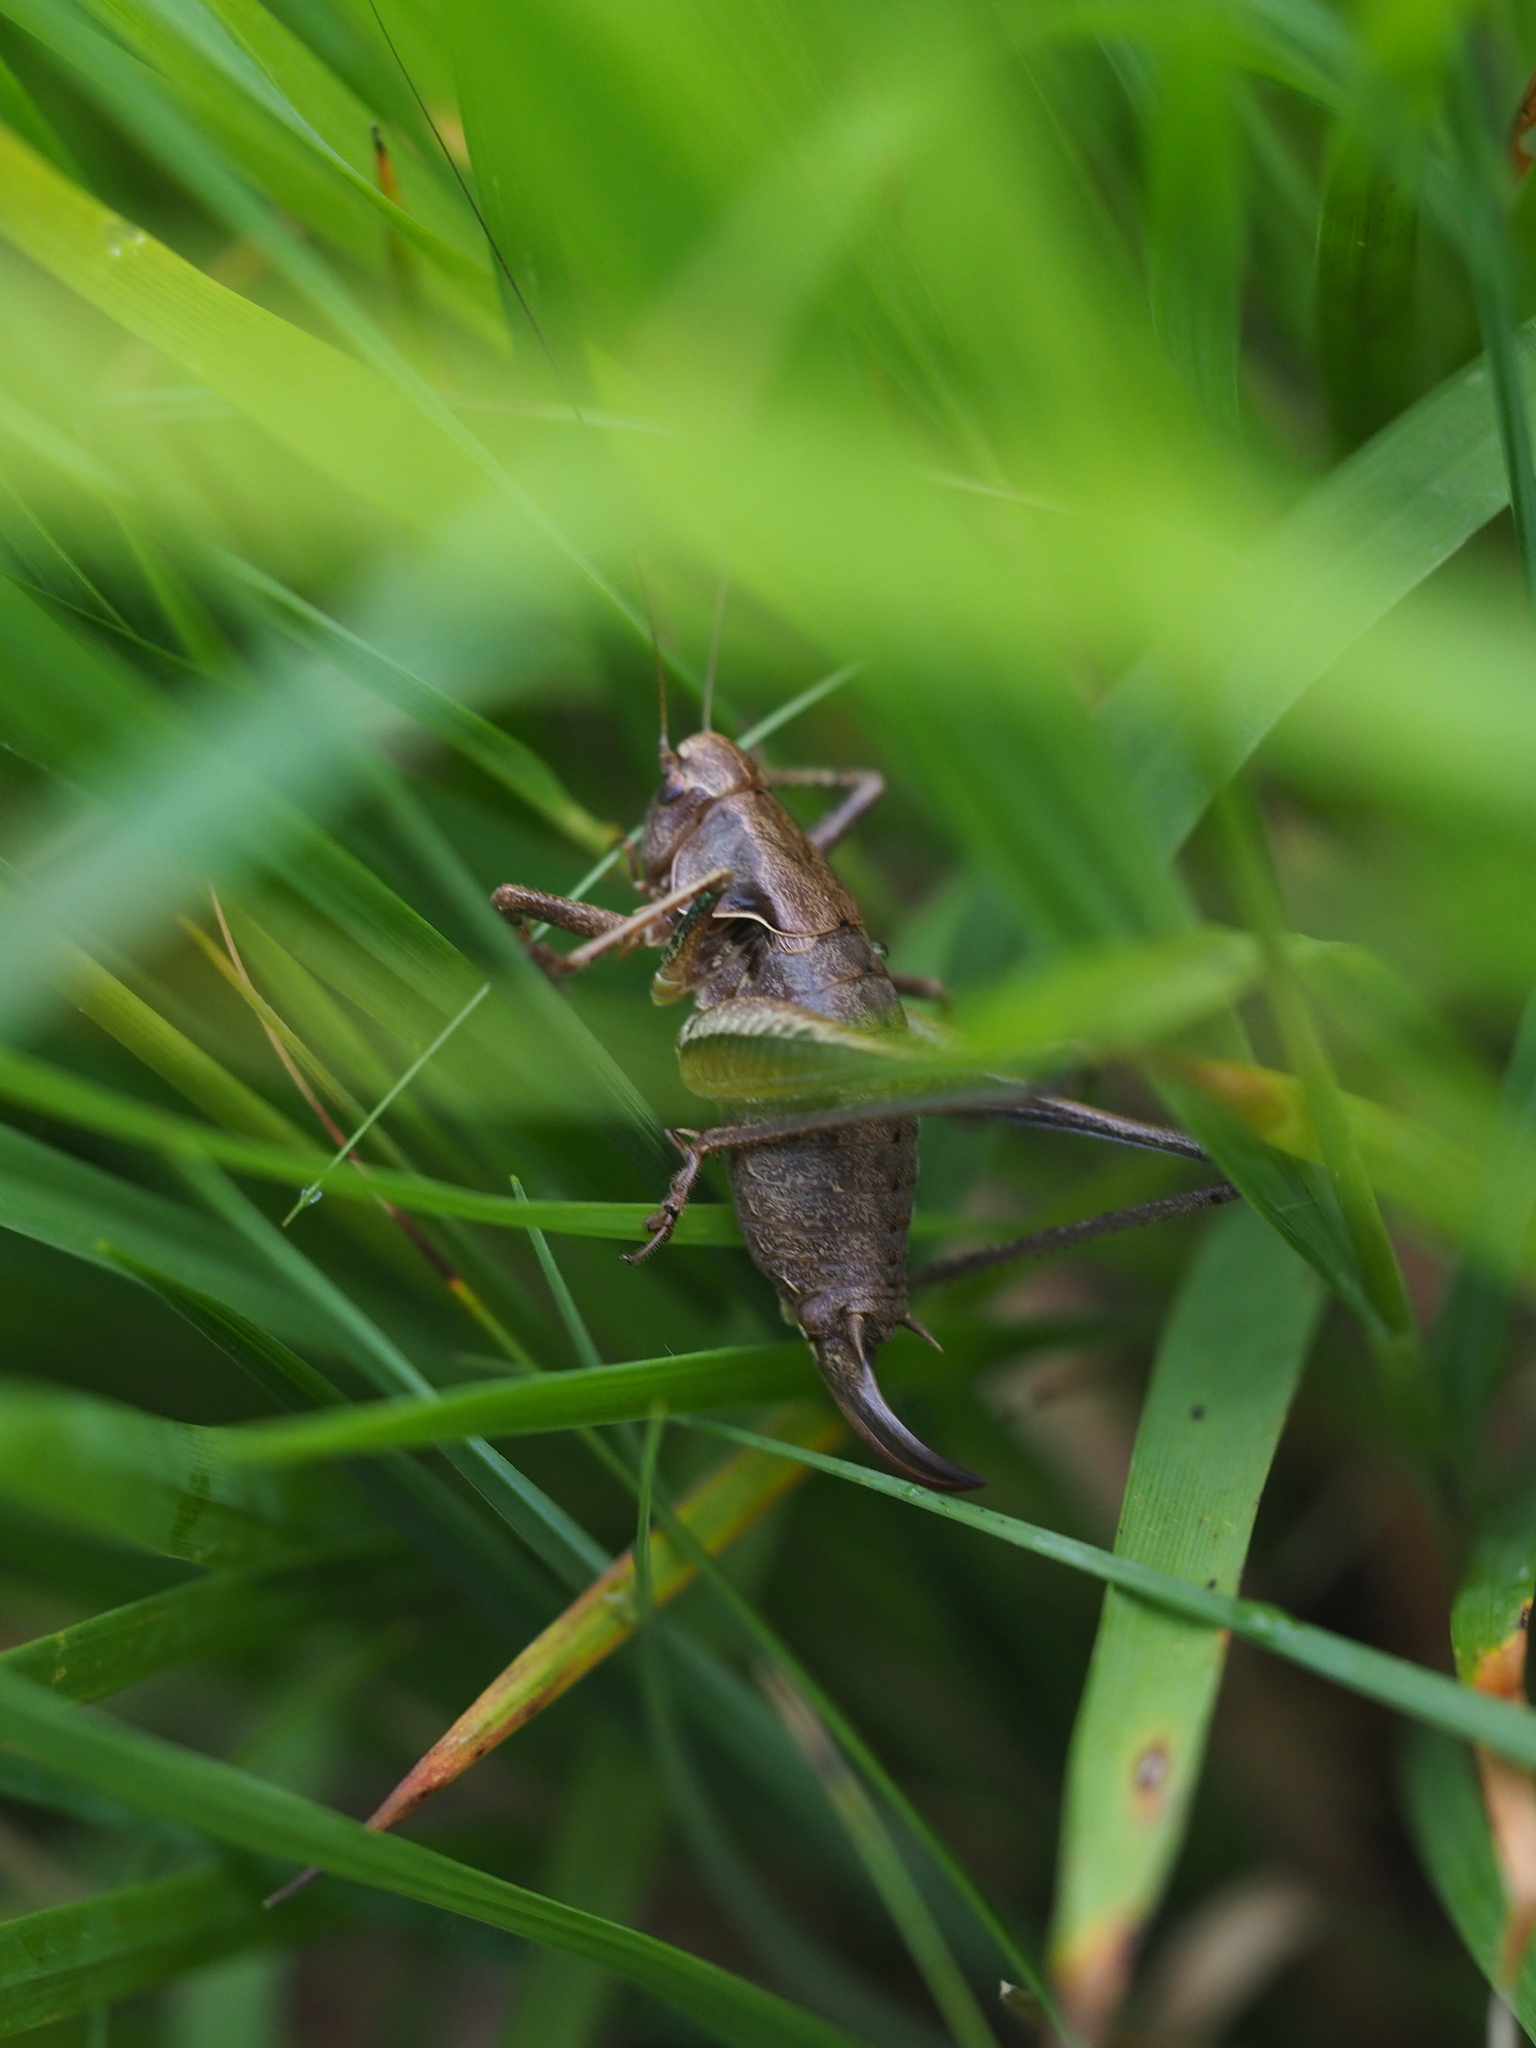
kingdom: Animalia
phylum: Arthropoda
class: Insecta
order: Orthoptera
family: Tettigoniidae
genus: Pholidoptera
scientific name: Pholidoptera griseoaptera
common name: Dark bush-cricket
